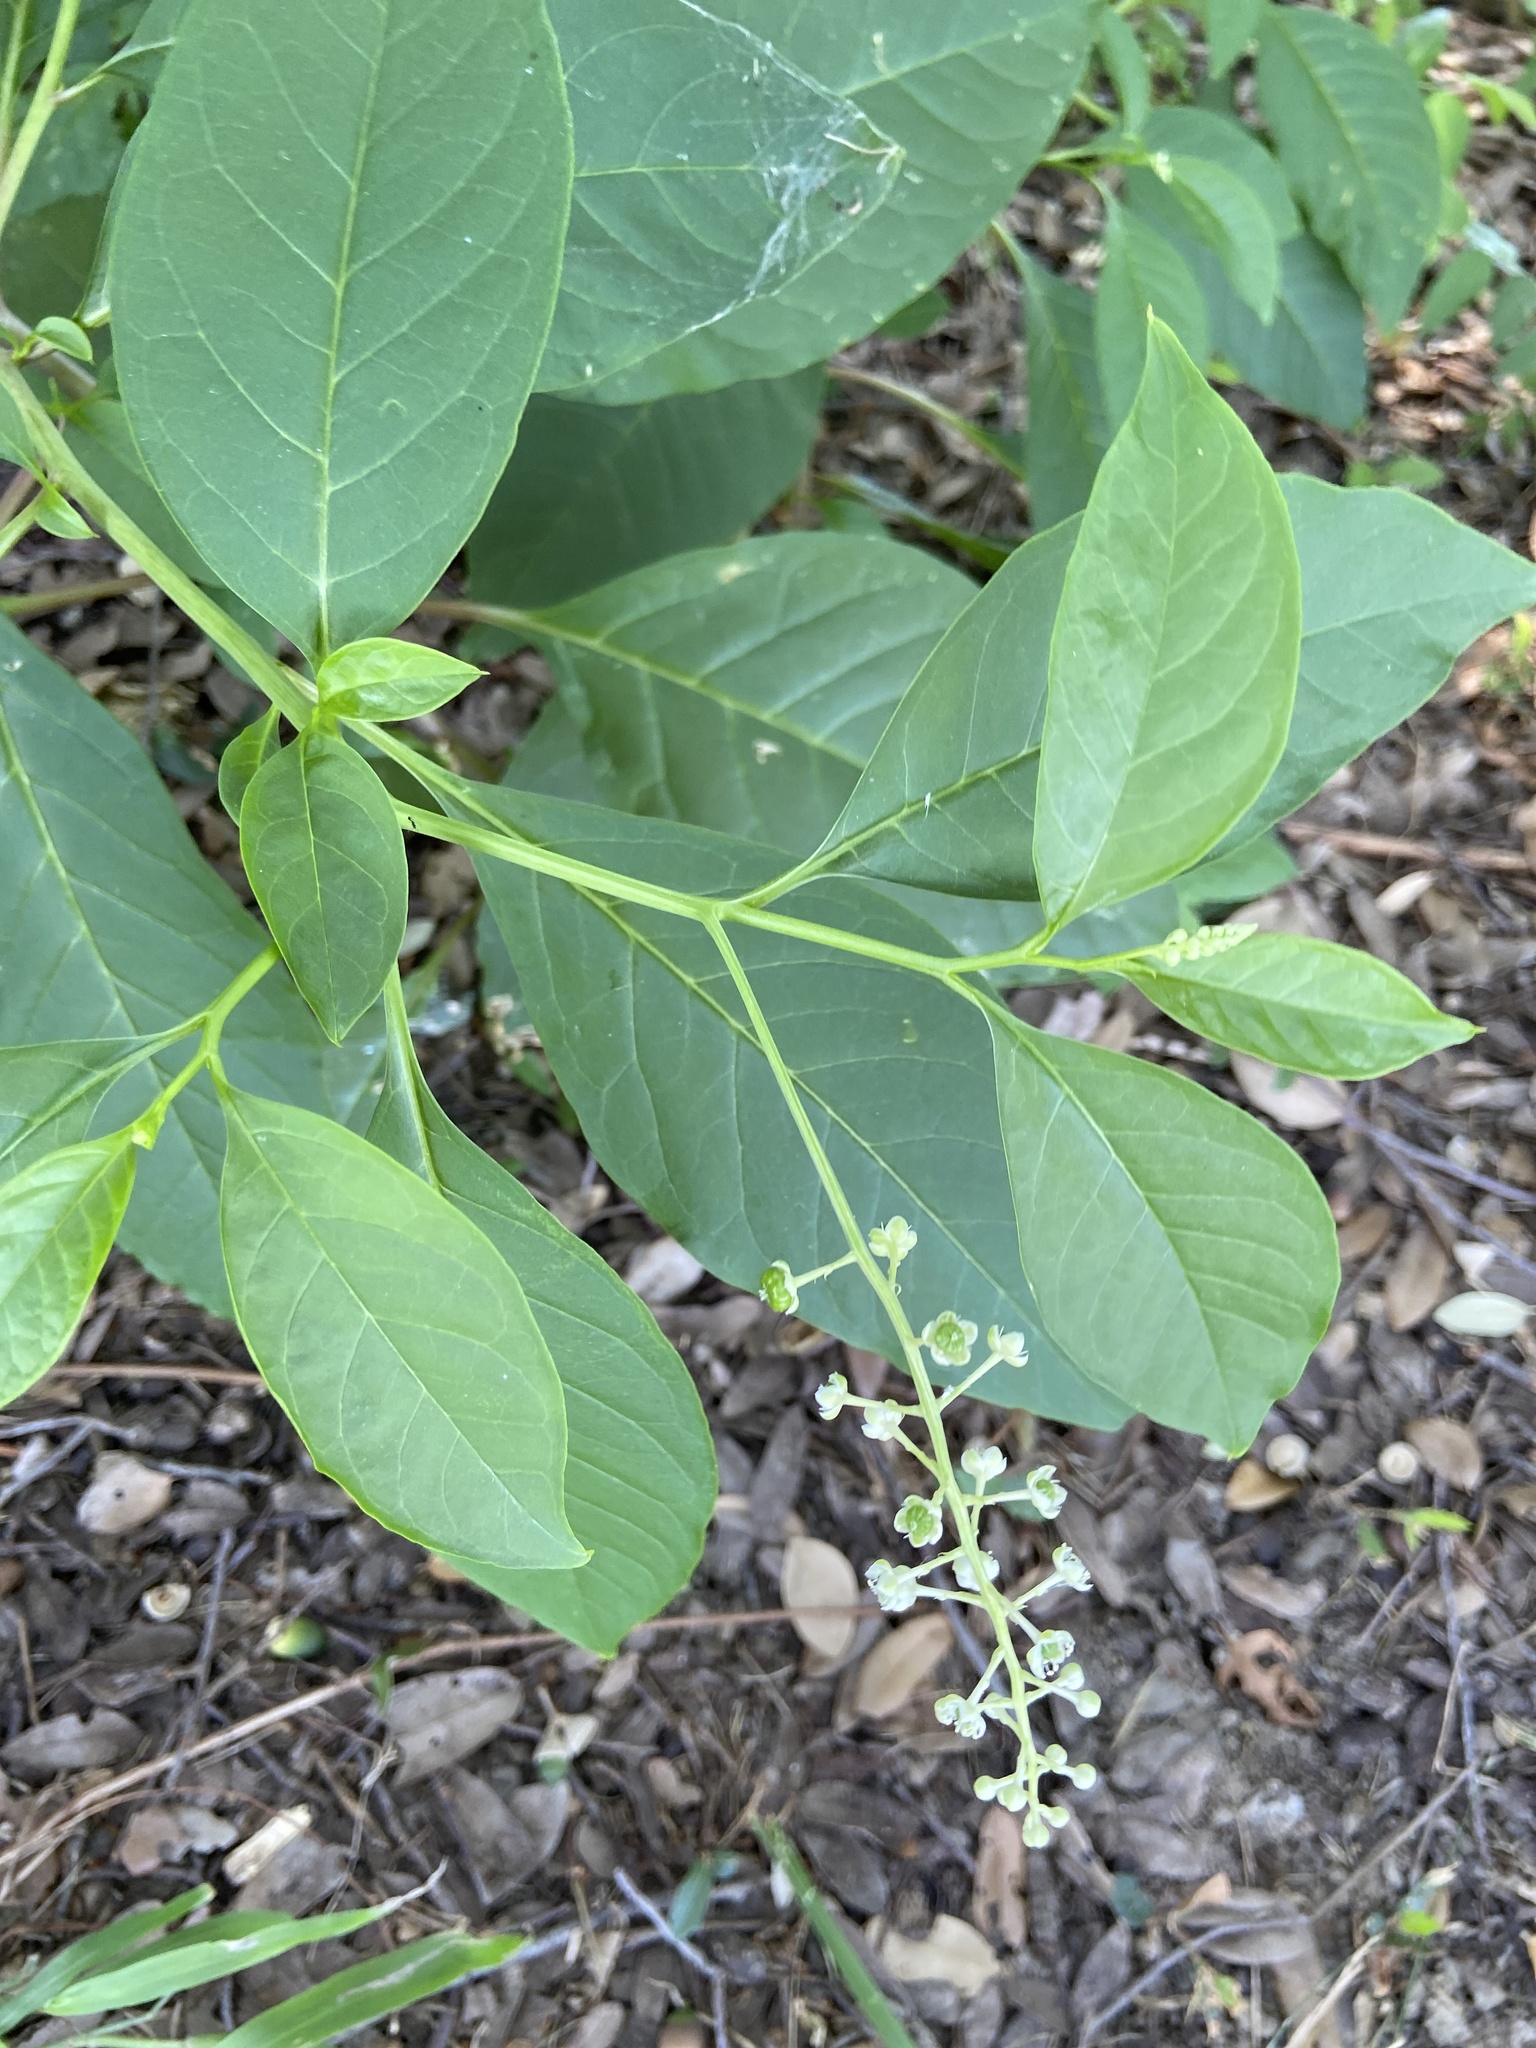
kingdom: Plantae
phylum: Tracheophyta
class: Magnoliopsida
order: Caryophyllales
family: Phytolaccaceae
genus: Phytolacca
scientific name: Phytolacca americana
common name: American pokeweed
